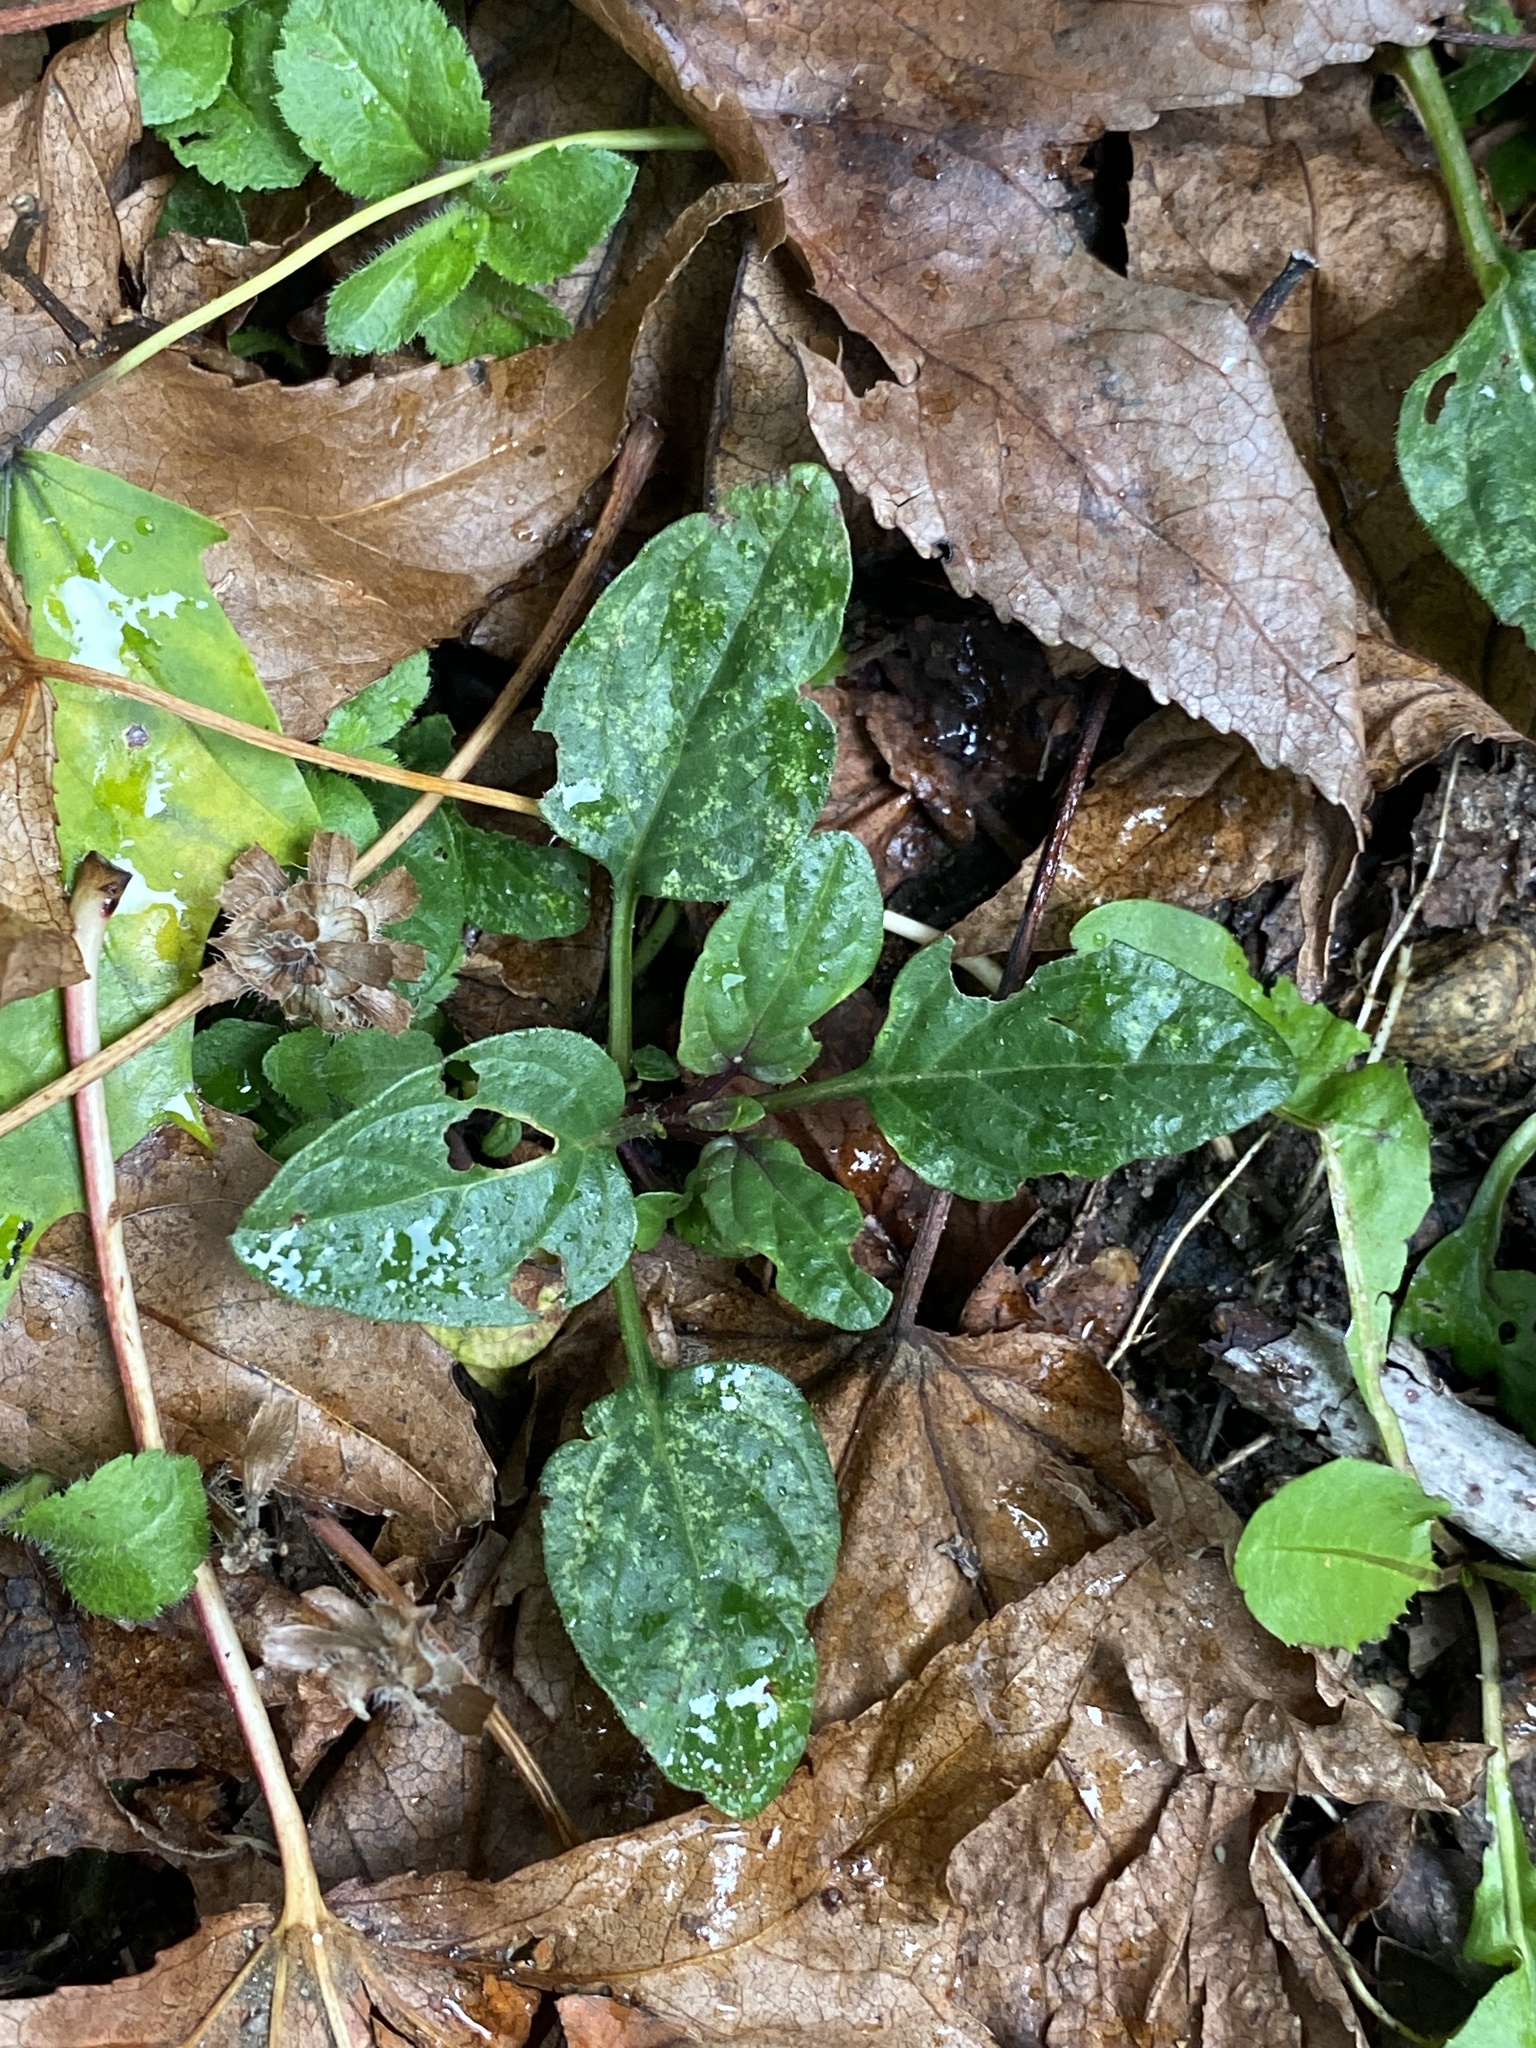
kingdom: Plantae
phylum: Tracheophyta
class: Magnoliopsida
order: Lamiales
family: Lamiaceae
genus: Prunella
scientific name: Prunella vulgaris
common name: Heal-all
